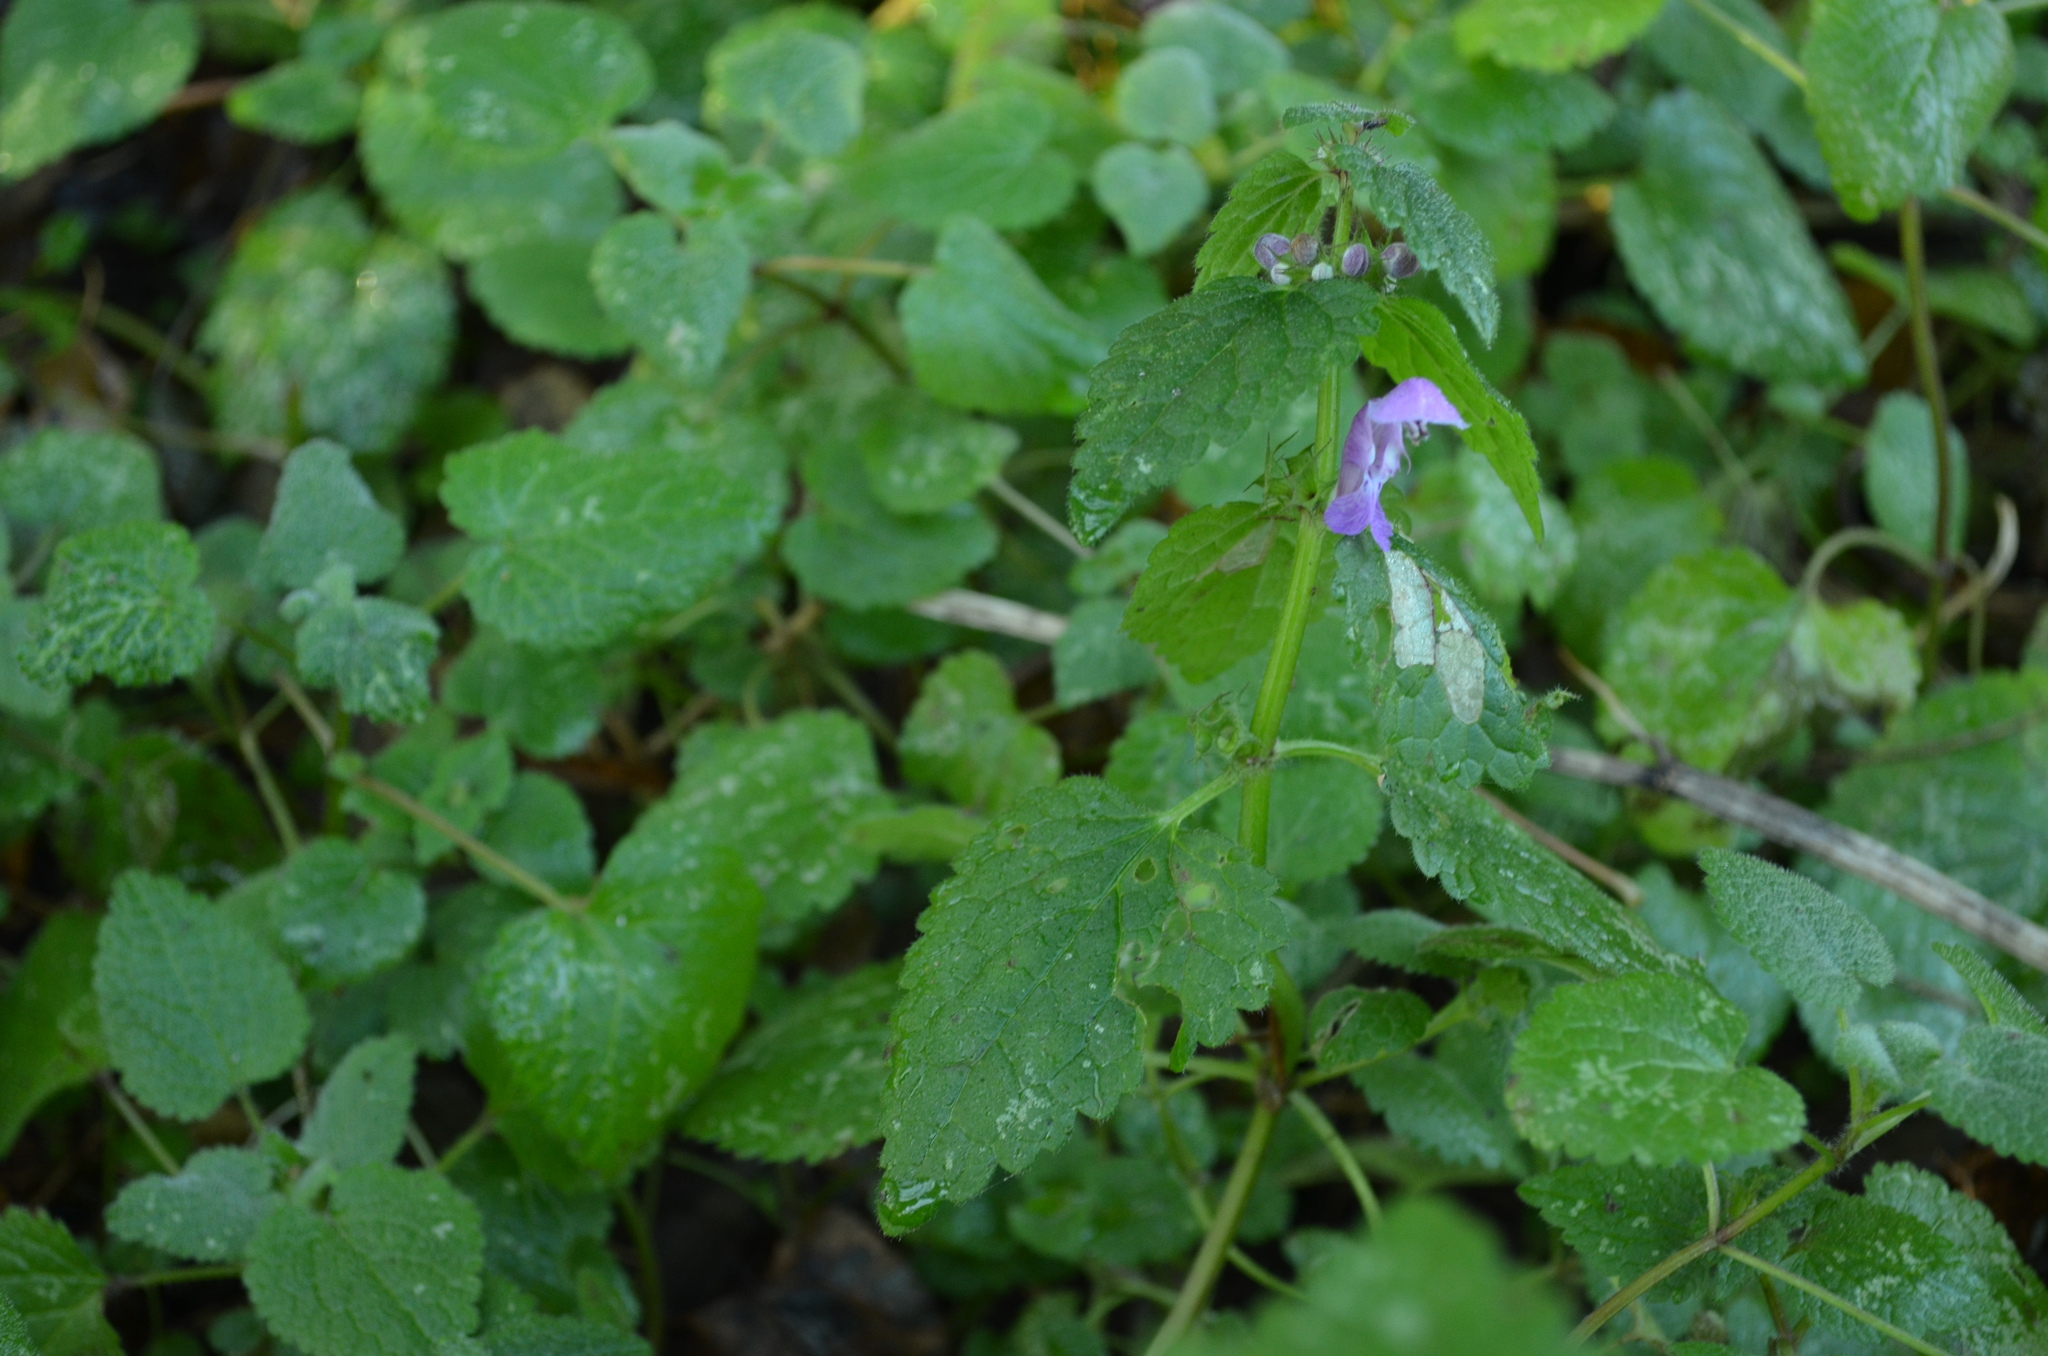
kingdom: Plantae
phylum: Tracheophyta
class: Magnoliopsida
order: Lamiales
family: Lamiaceae
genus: Lamium
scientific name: Lamium maculatum
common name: Spotted dead-nettle
